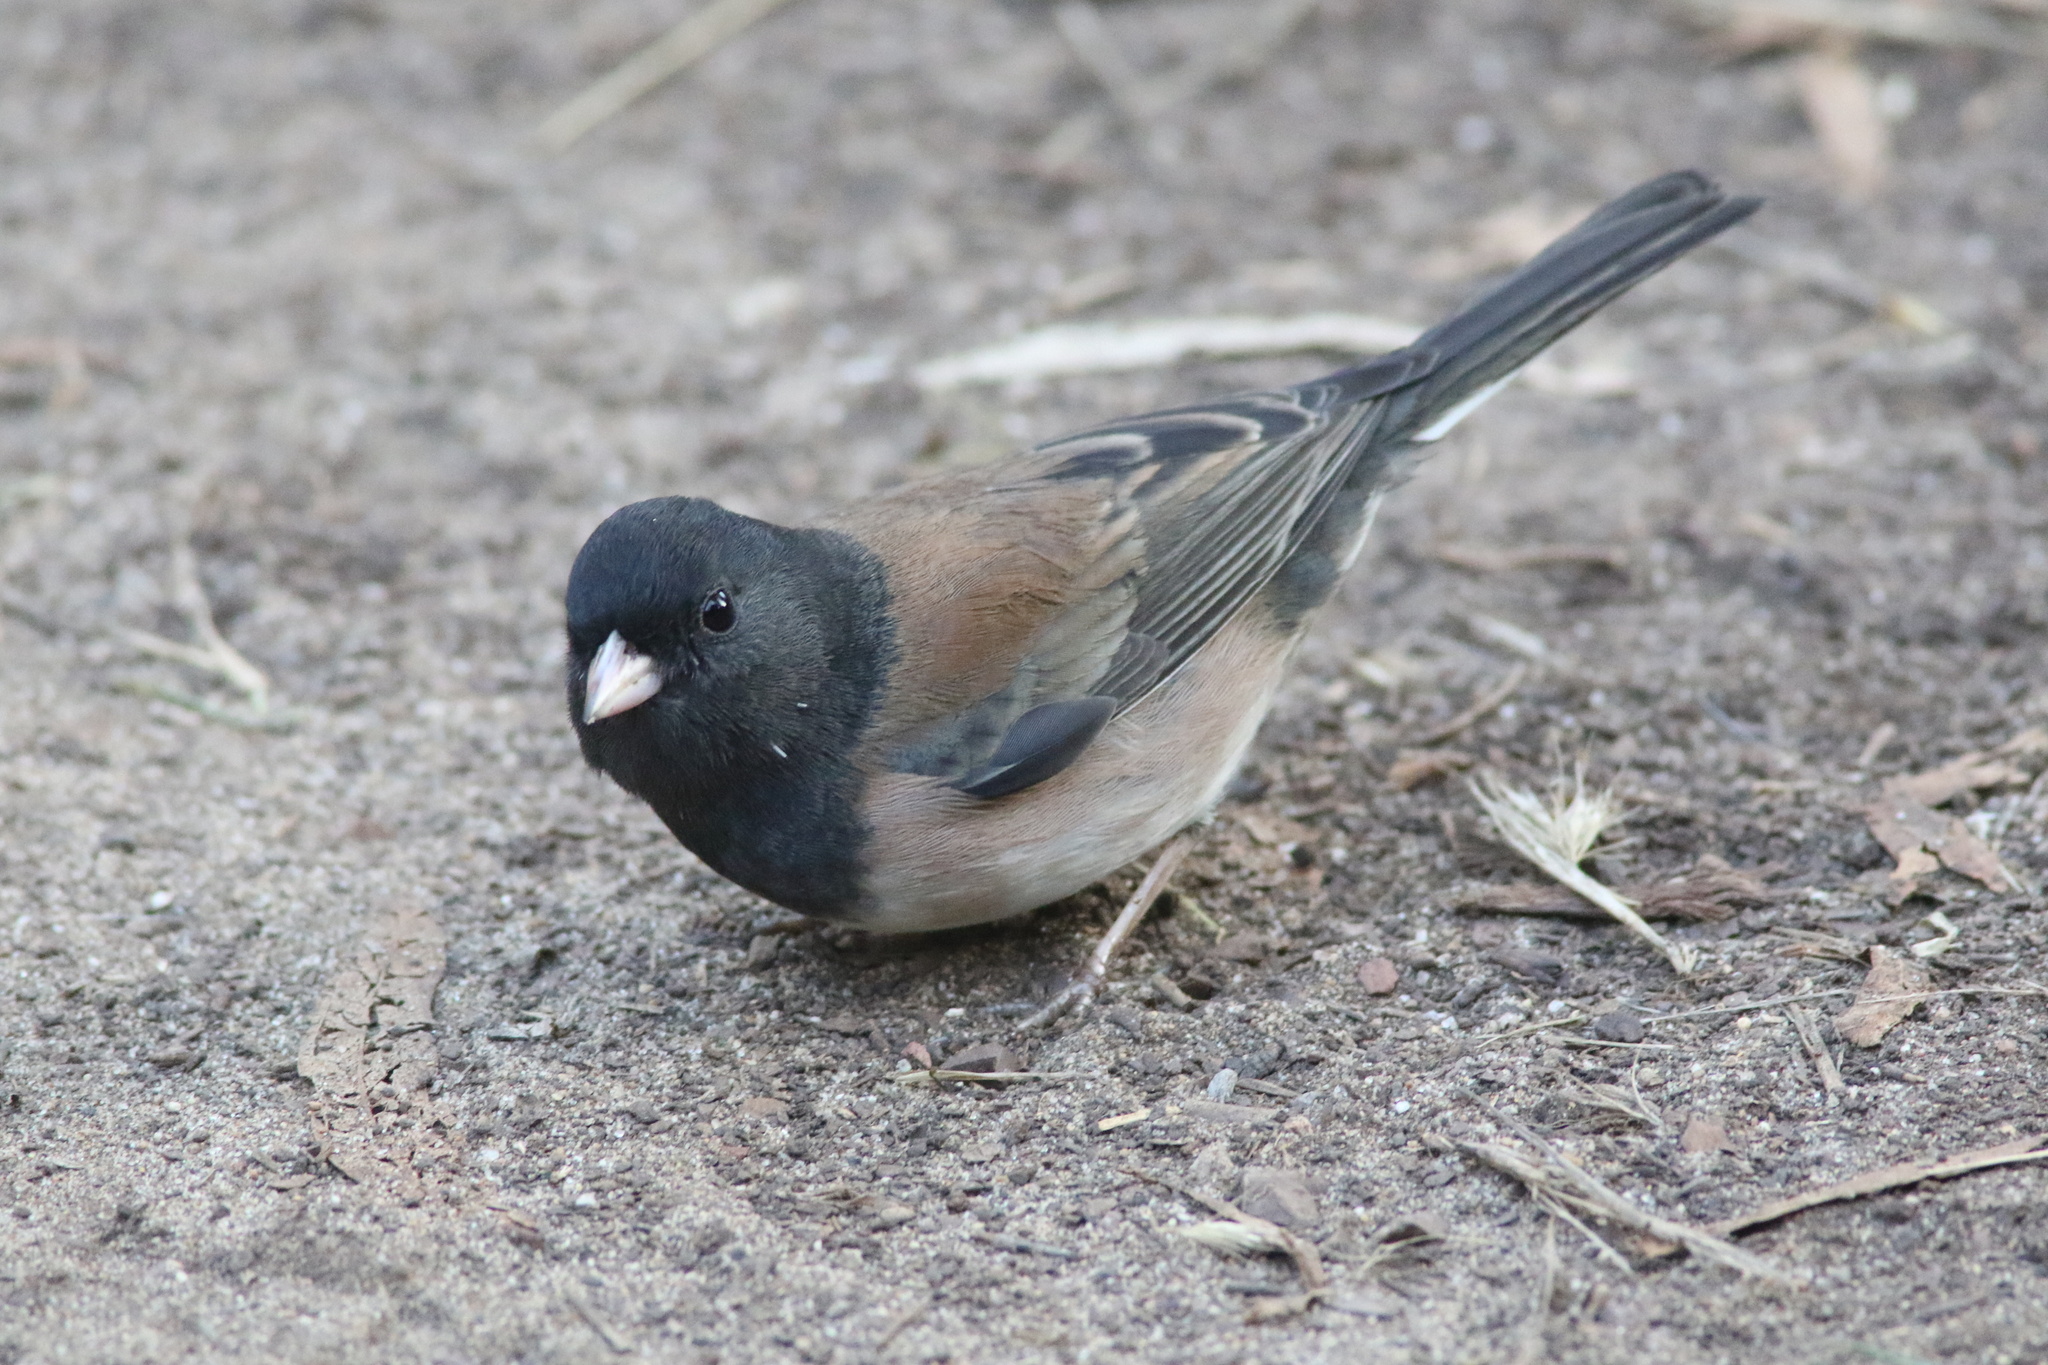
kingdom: Animalia
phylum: Chordata
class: Aves
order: Passeriformes
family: Passerellidae
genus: Junco
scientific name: Junco hyemalis
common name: Dark-eyed junco
